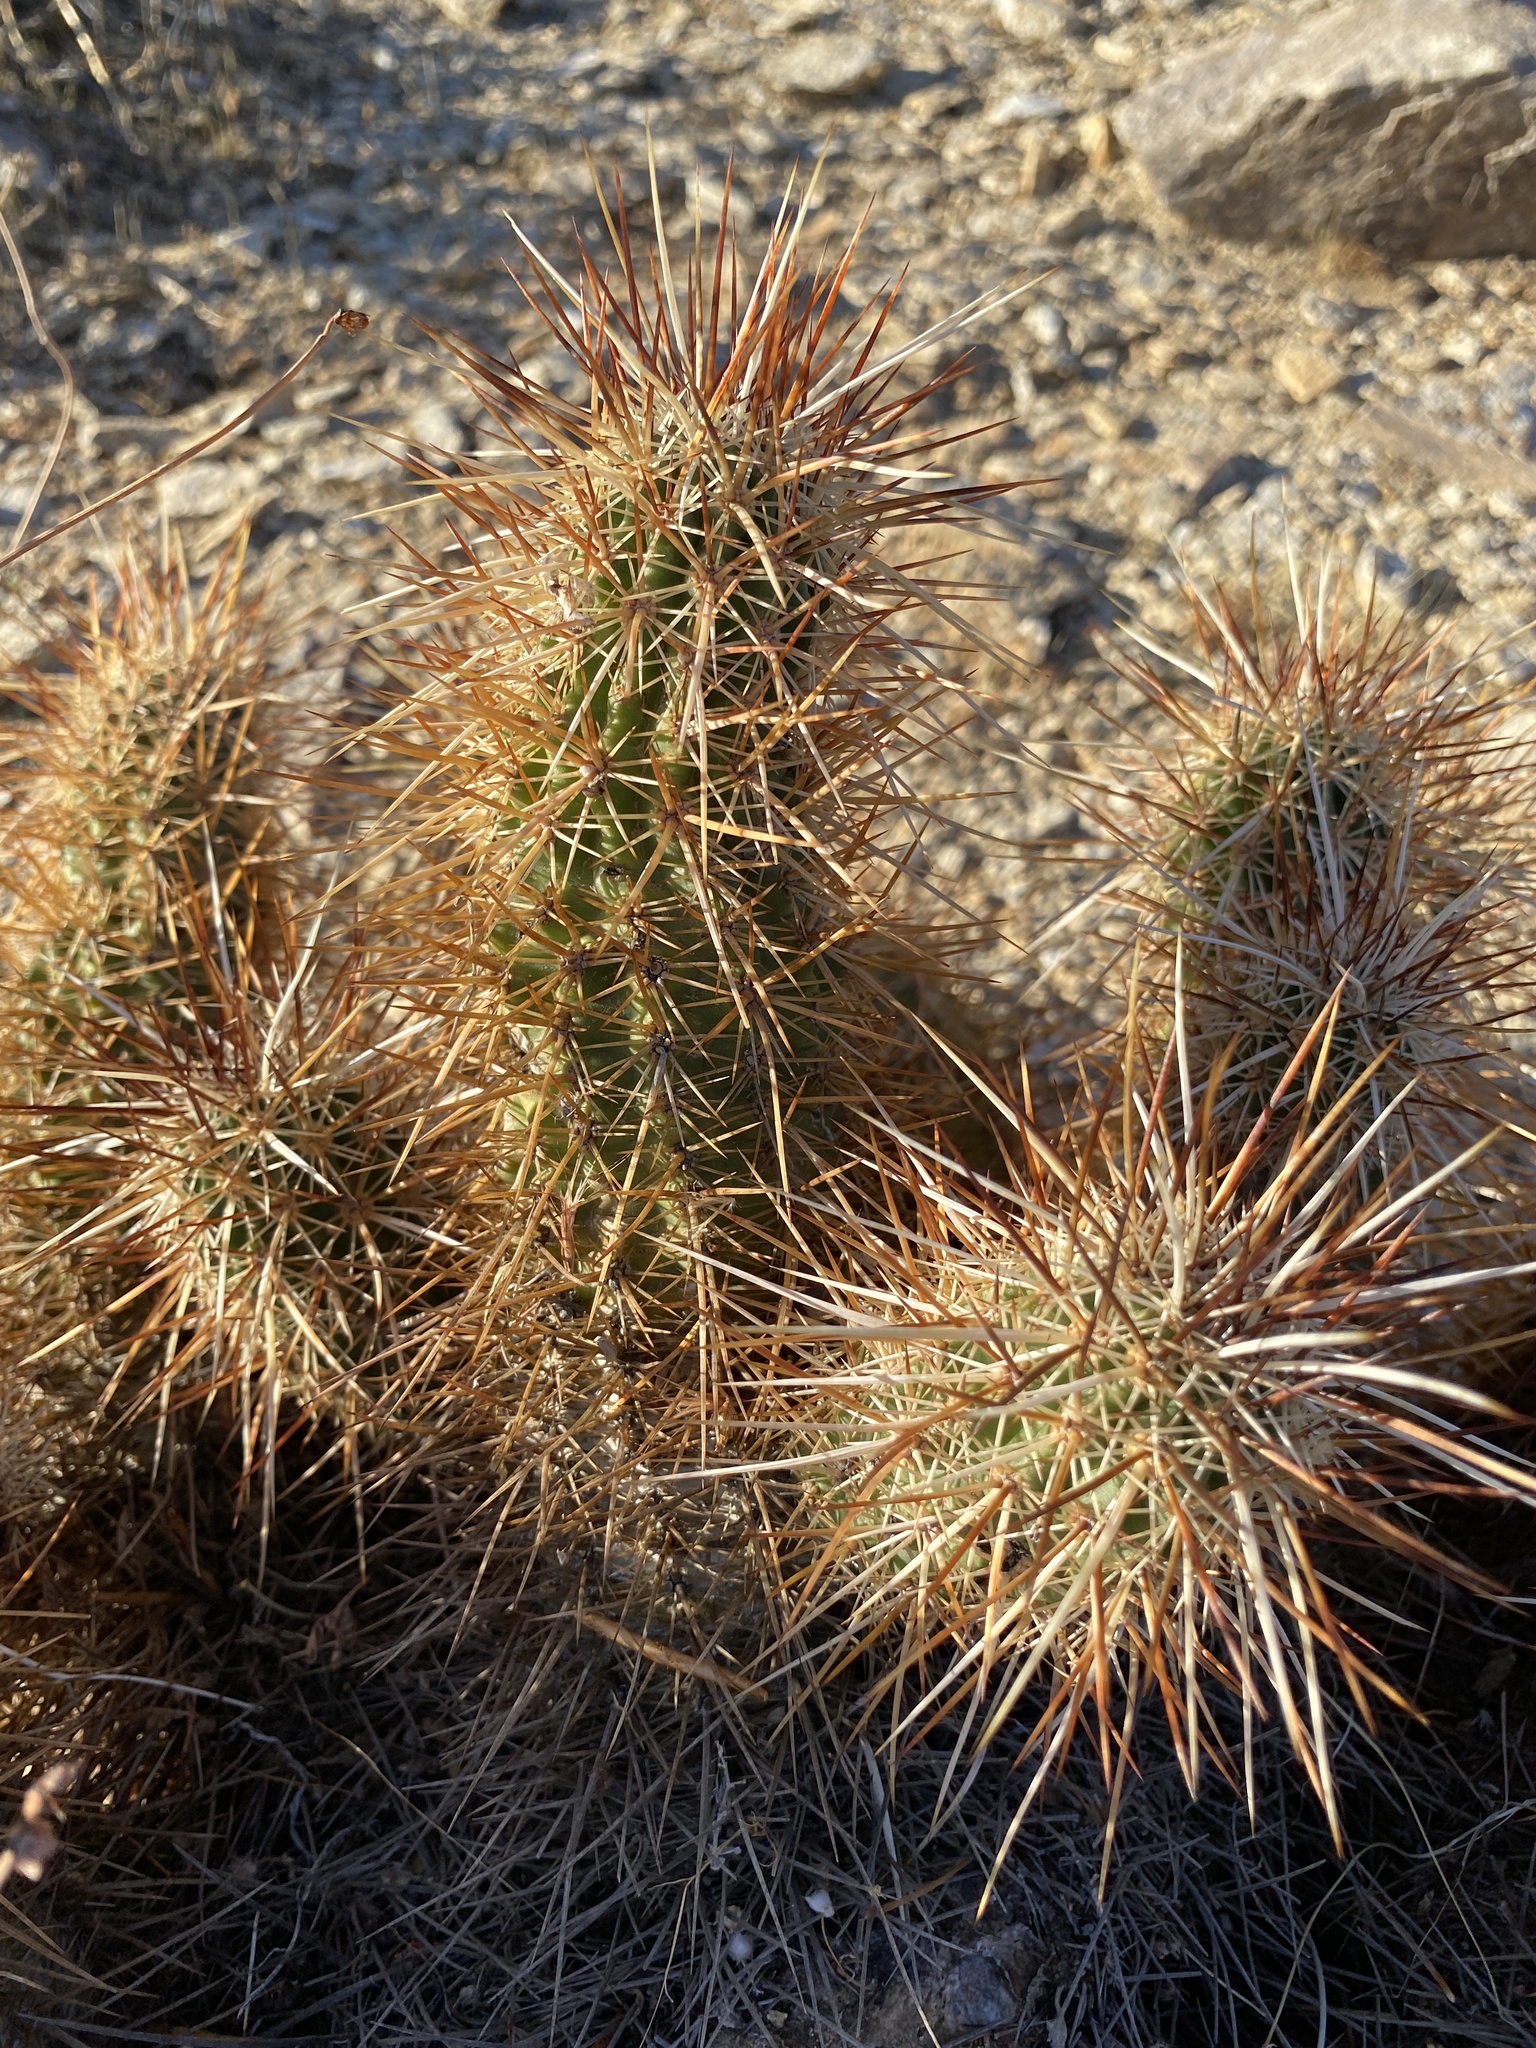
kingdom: Plantae
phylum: Tracheophyta
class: Magnoliopsida
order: Caryophyllales
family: Cactaceae
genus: Echinocereus
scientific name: Echinocereus engelmannii
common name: Engelmann's hedgehog cactus
